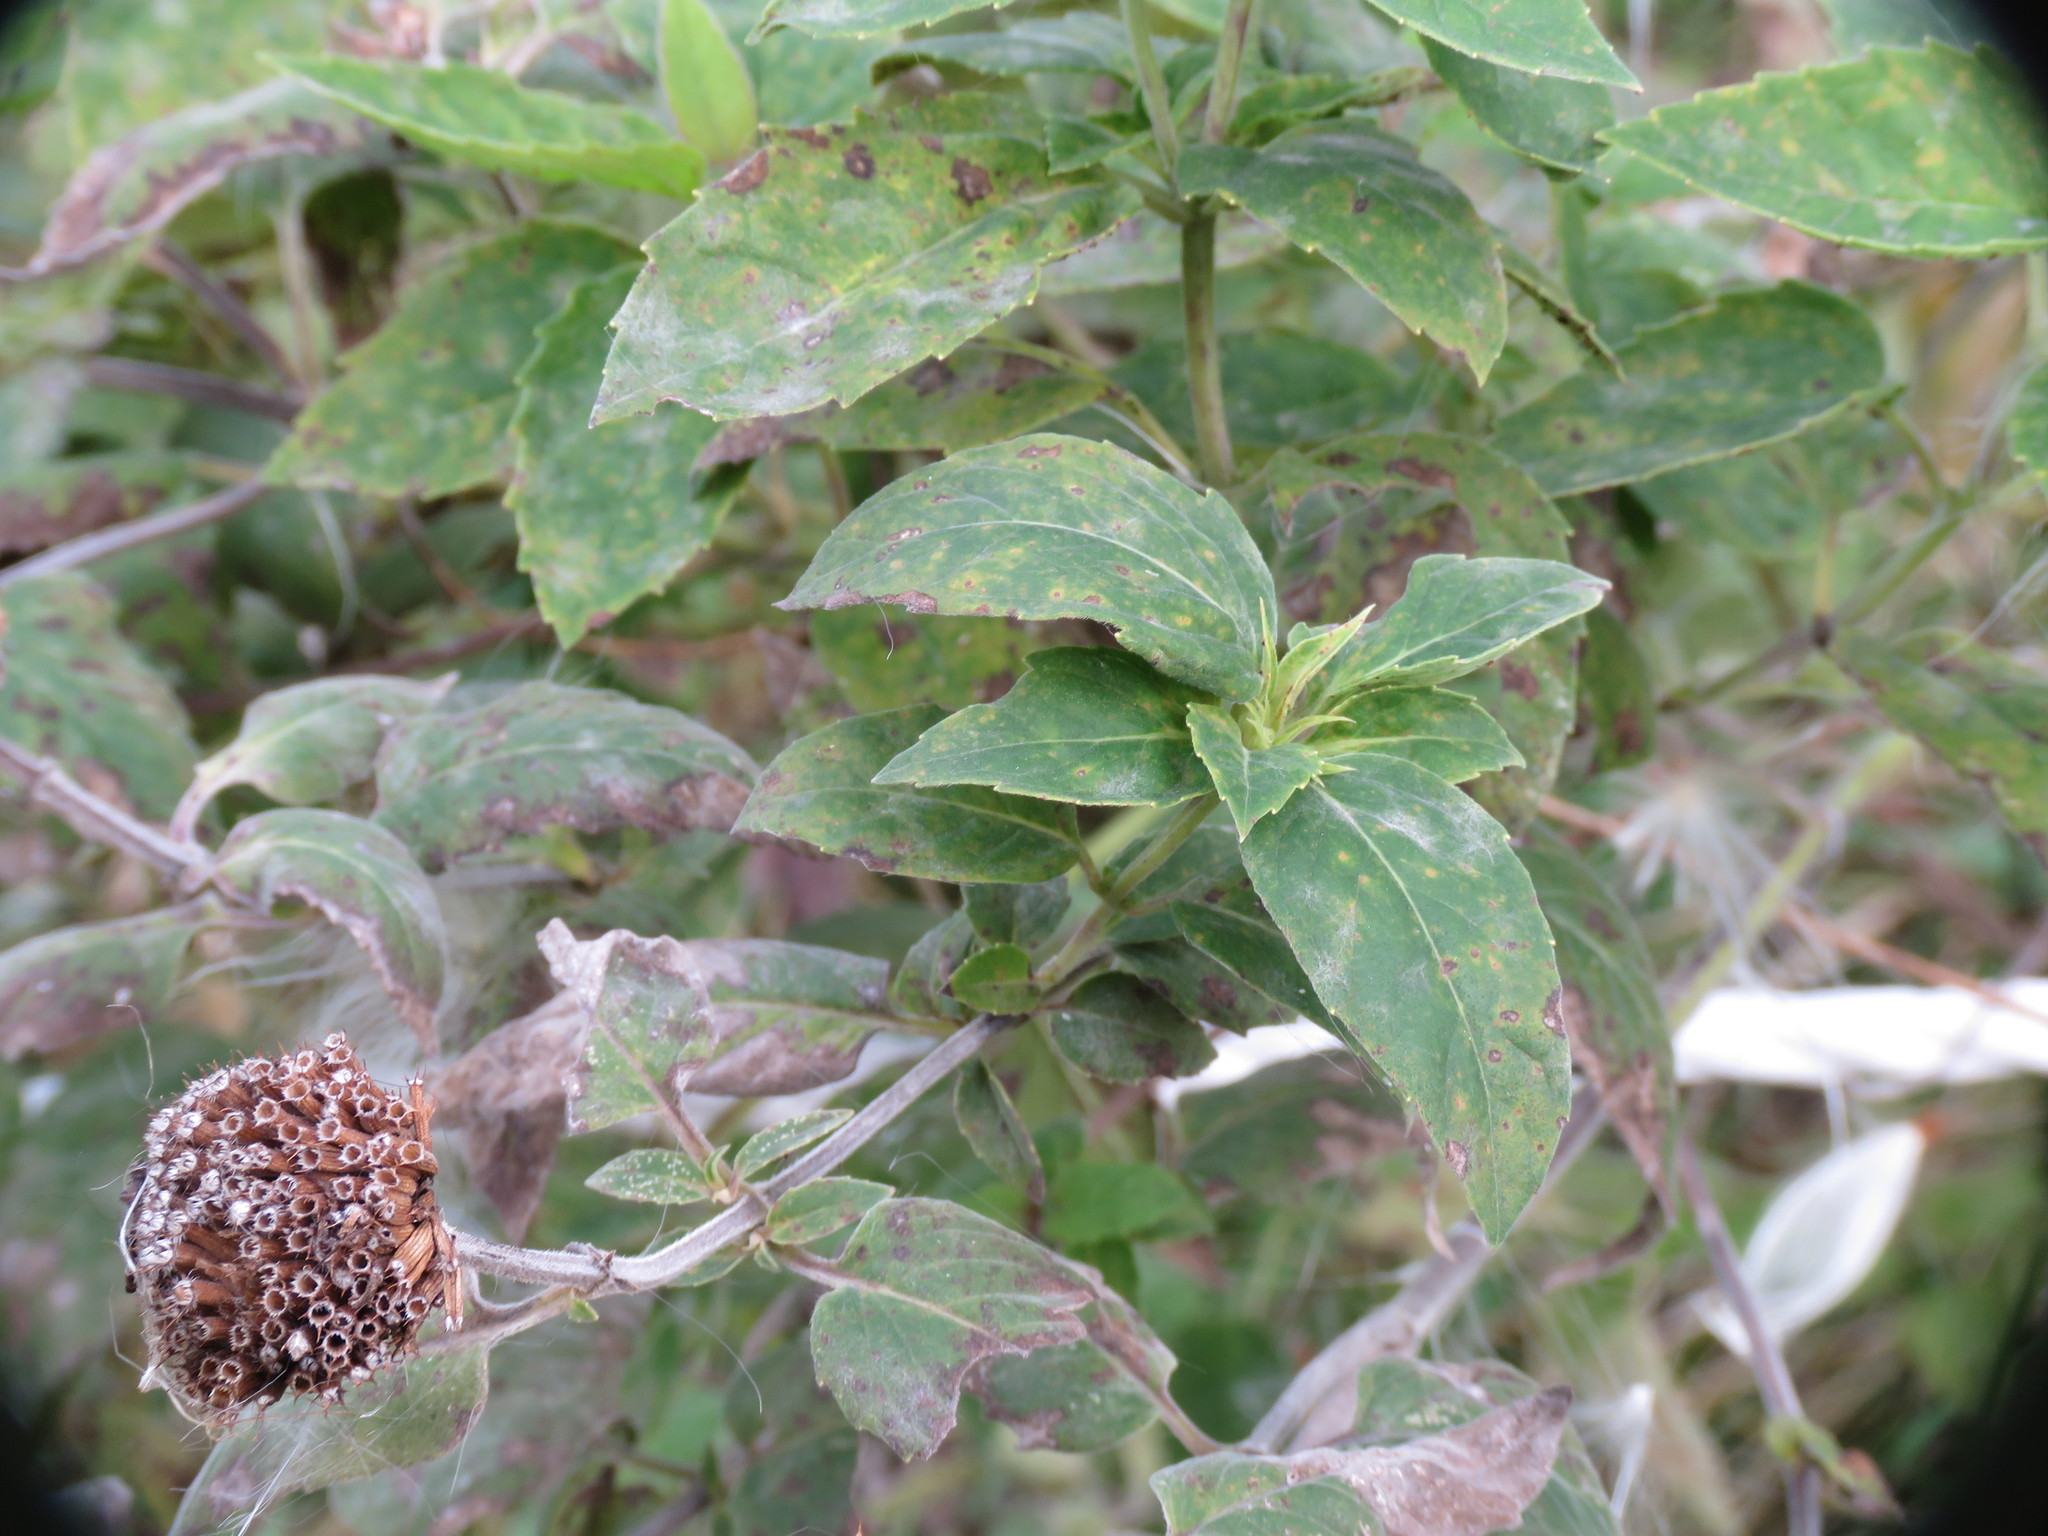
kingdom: Plantae
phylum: Tracheophyta
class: Magnoliopsida
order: Lamiales
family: Lamiaceae
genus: Monarda
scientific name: Monarda fistulosa
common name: Purple beebalm
